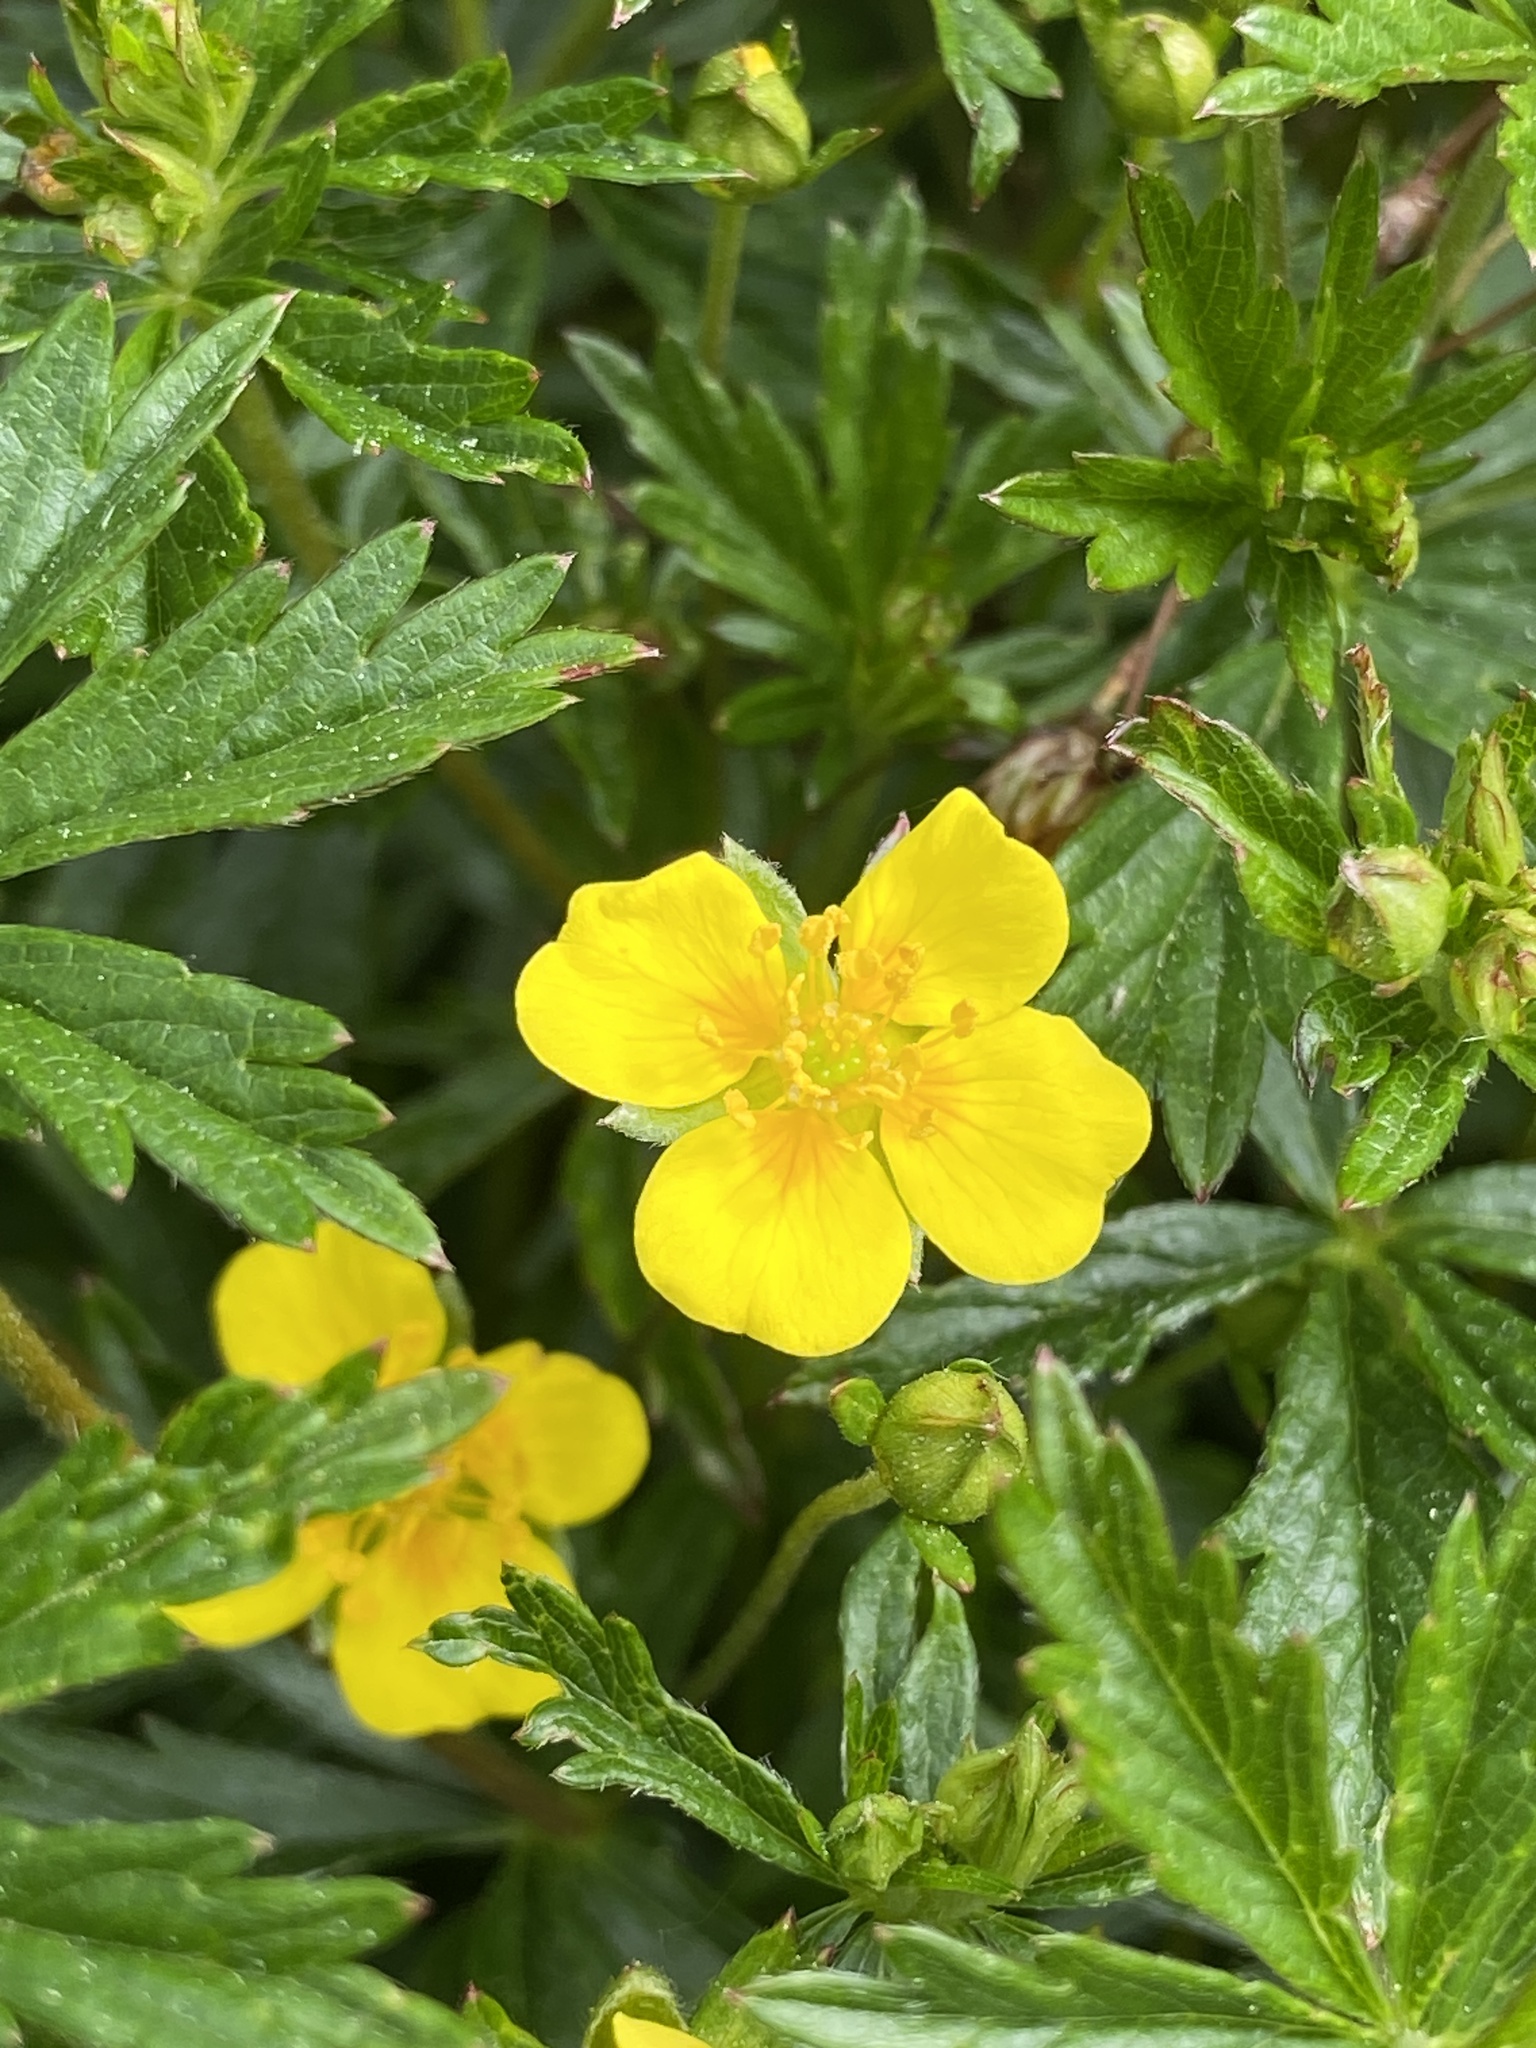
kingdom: Plantae
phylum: Tracheophyta
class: Magnoliopsida
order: Rosales
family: Rosaceae
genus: Potentilla
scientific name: Potentilla erecta
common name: Tormentil
